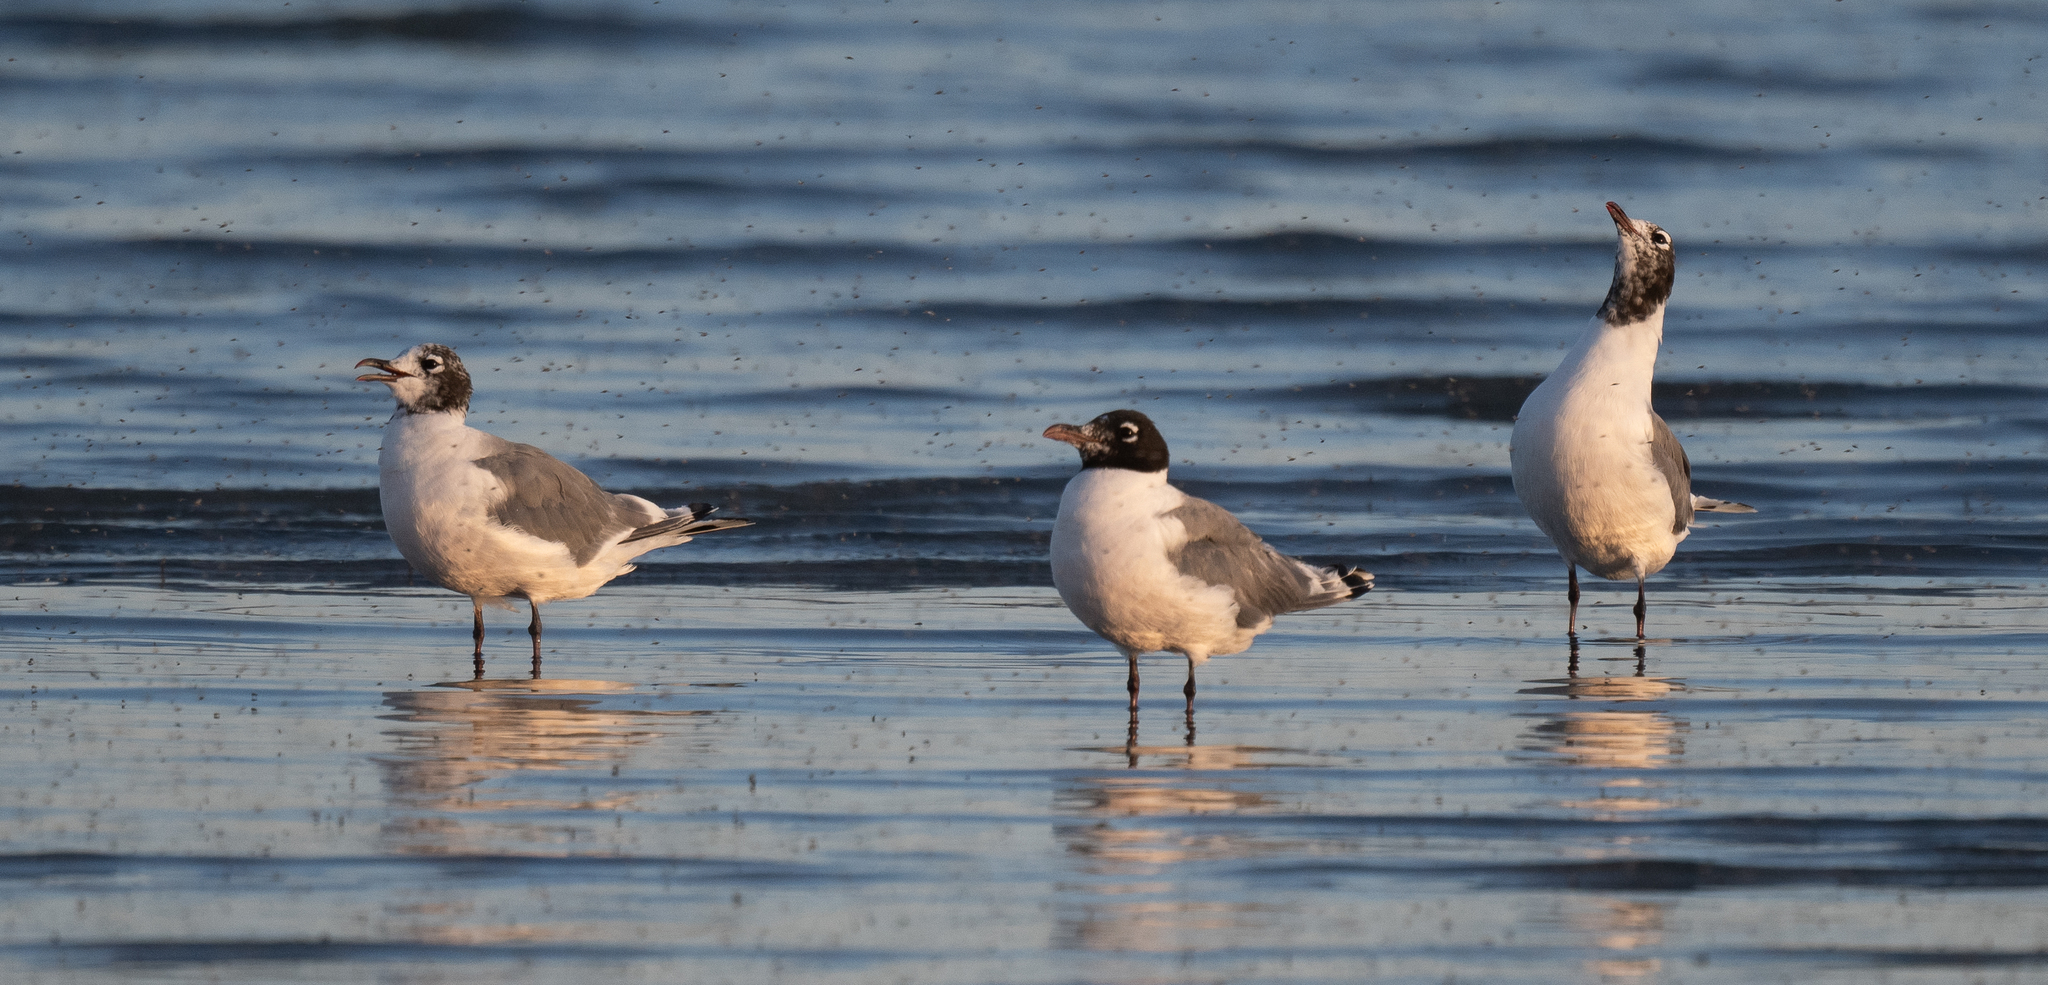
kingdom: Animalia
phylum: Chordata
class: Aves
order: Charadriiformes
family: Laridae
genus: Leucophaeus
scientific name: Leucophaeus pipixcan
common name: Franklin's gull
